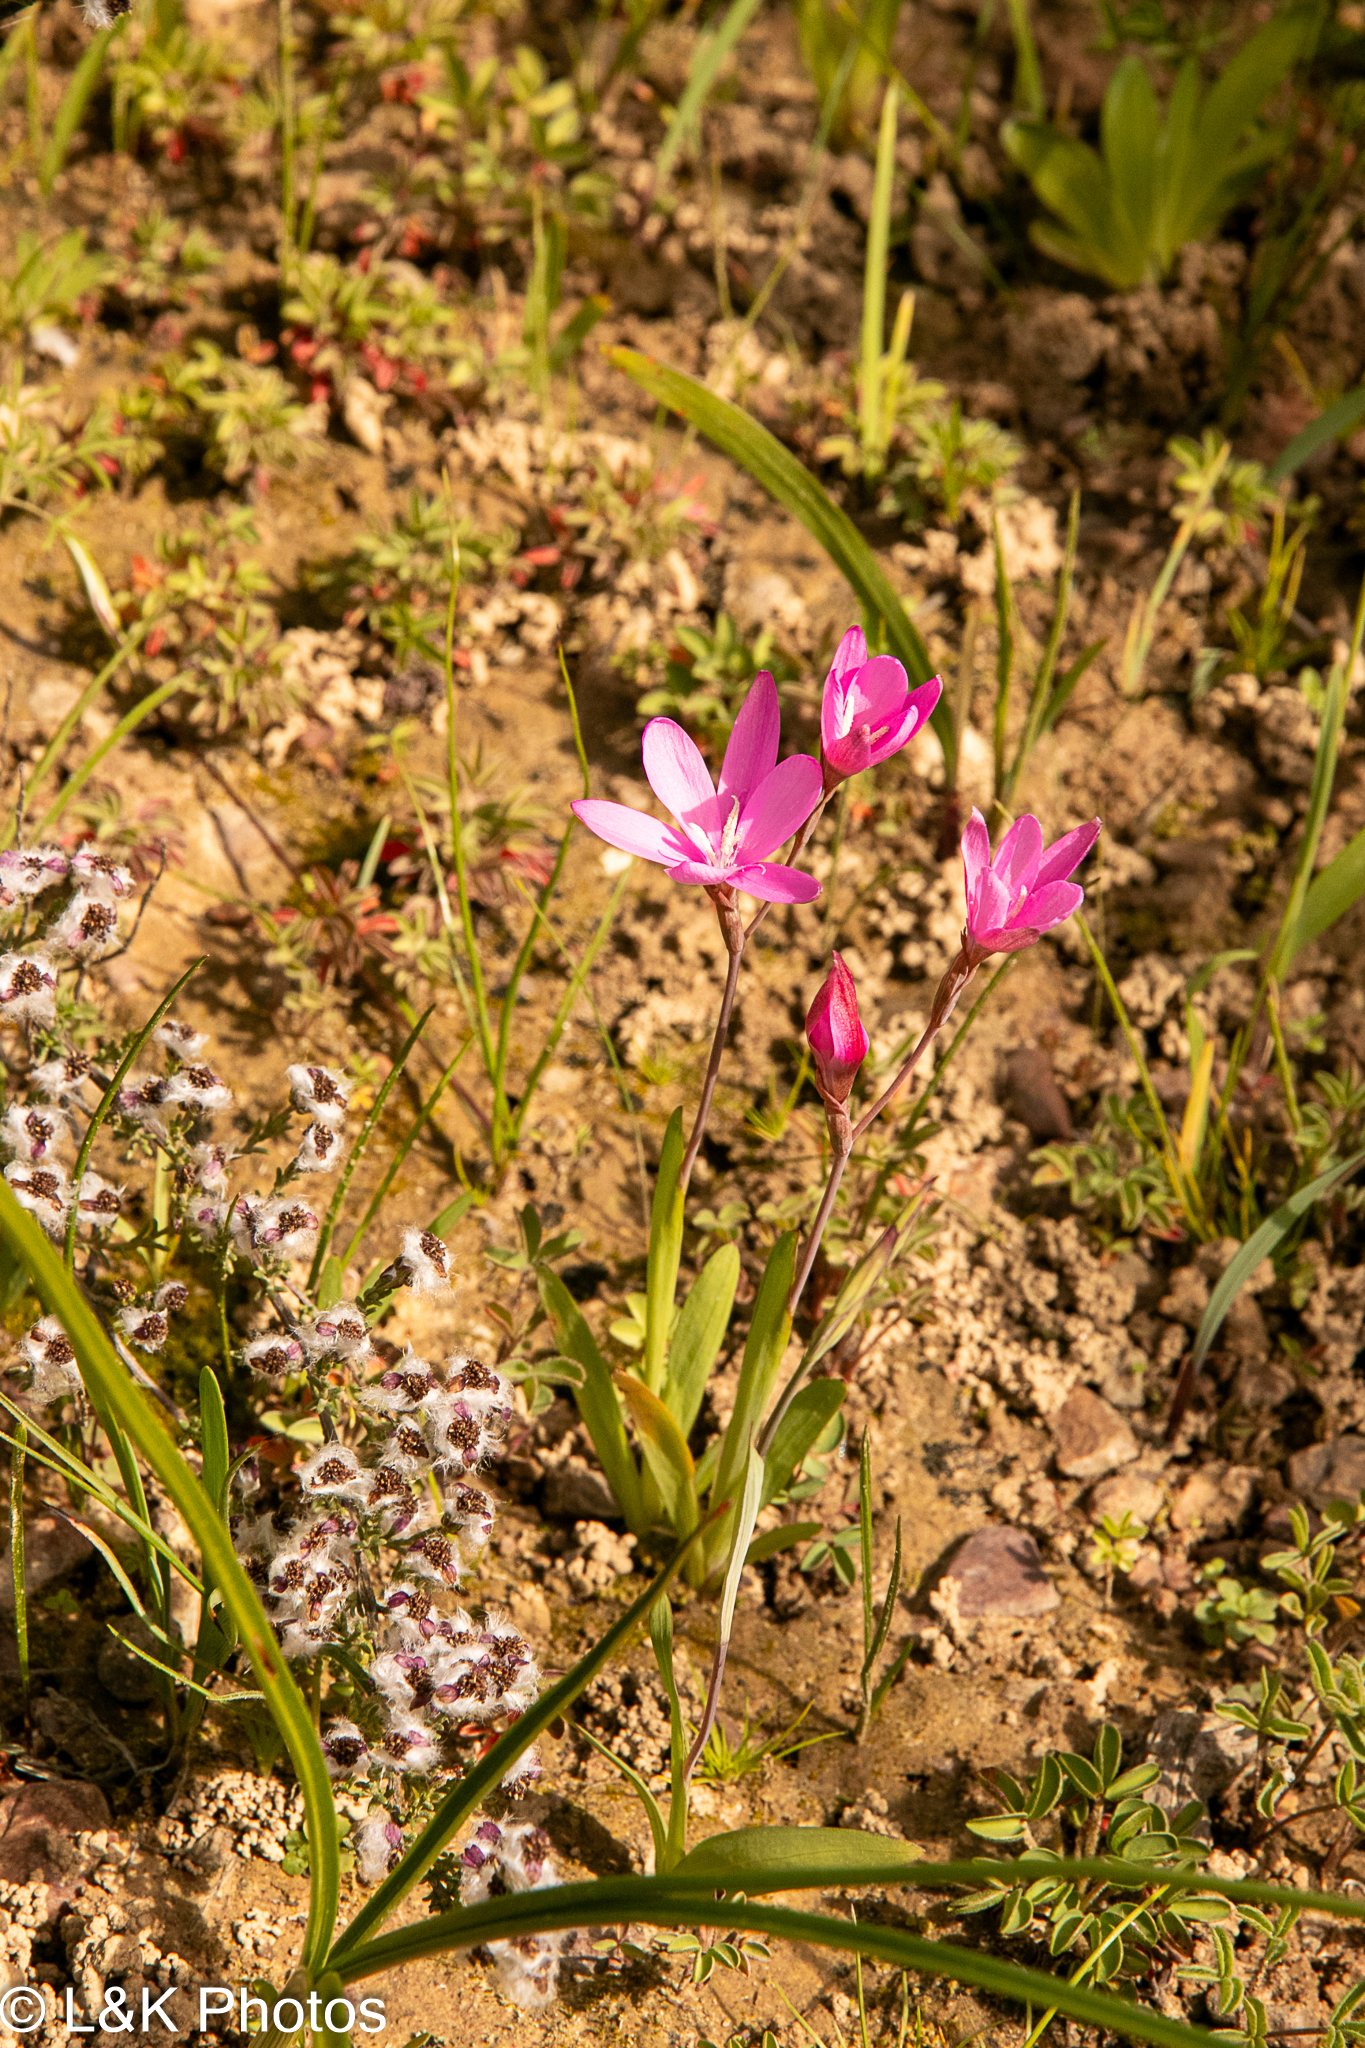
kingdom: Plantae
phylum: Tracheophyta
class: Liliopsida
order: Asparagales
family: Iridaceae
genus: Hesperantha
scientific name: Hesperantha pauciflora
